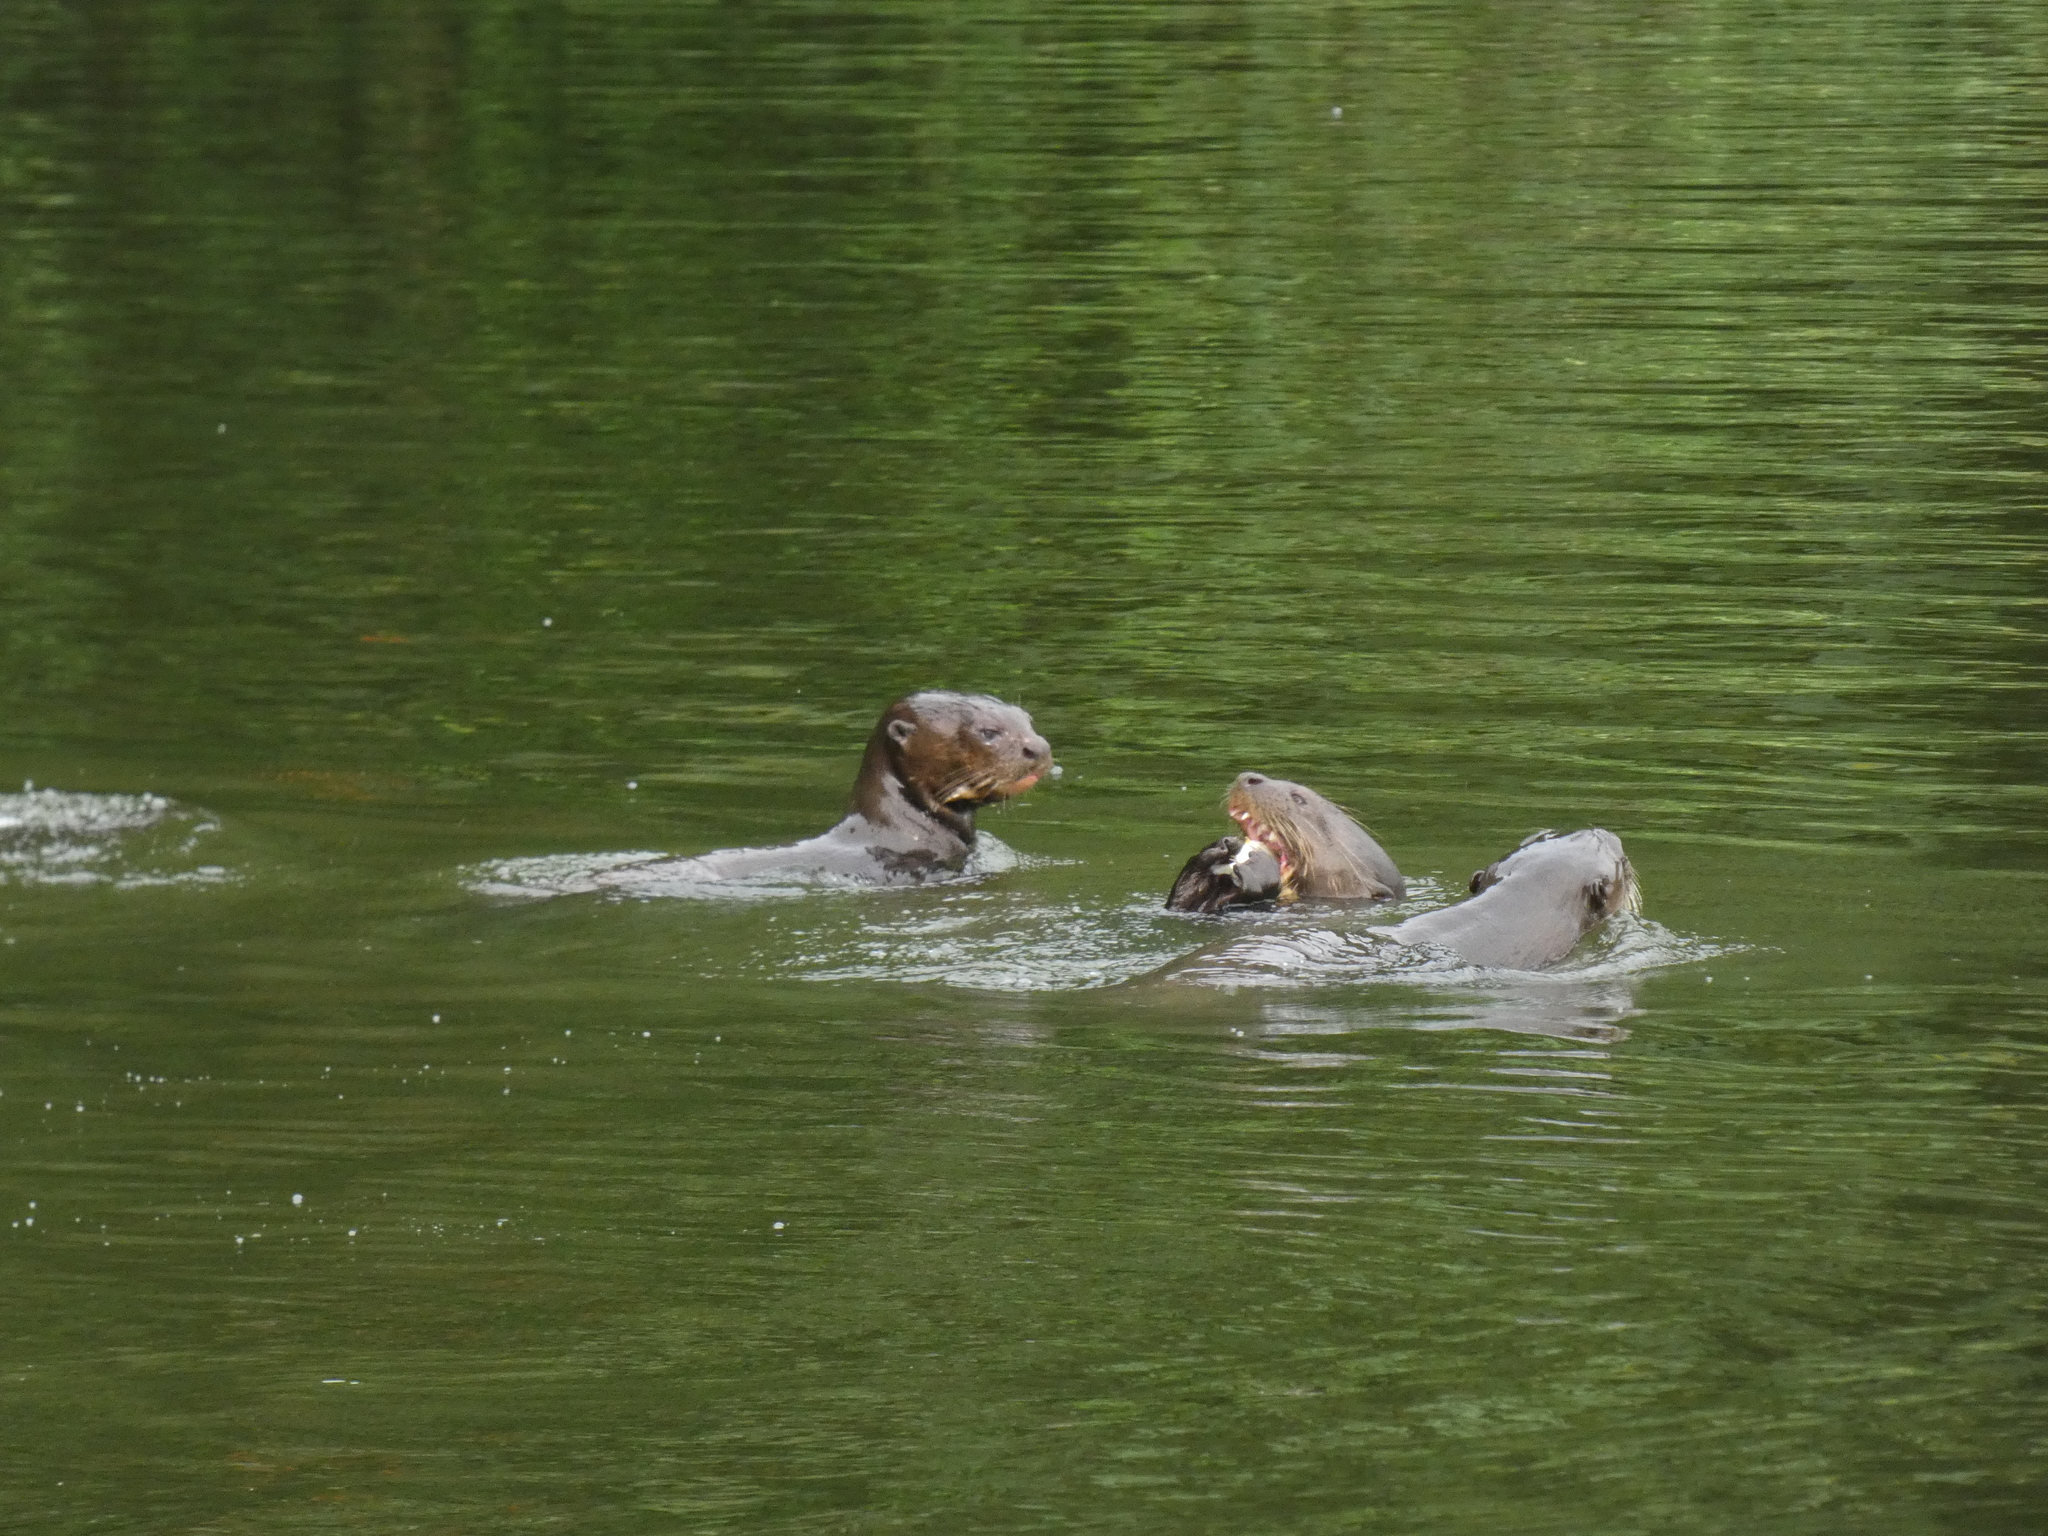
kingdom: Animalia
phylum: Chordata
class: Mammalia
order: Carnivora
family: Mustelidae
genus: Pteronura
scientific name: Pteronura brasiliensis
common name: Giant otter
